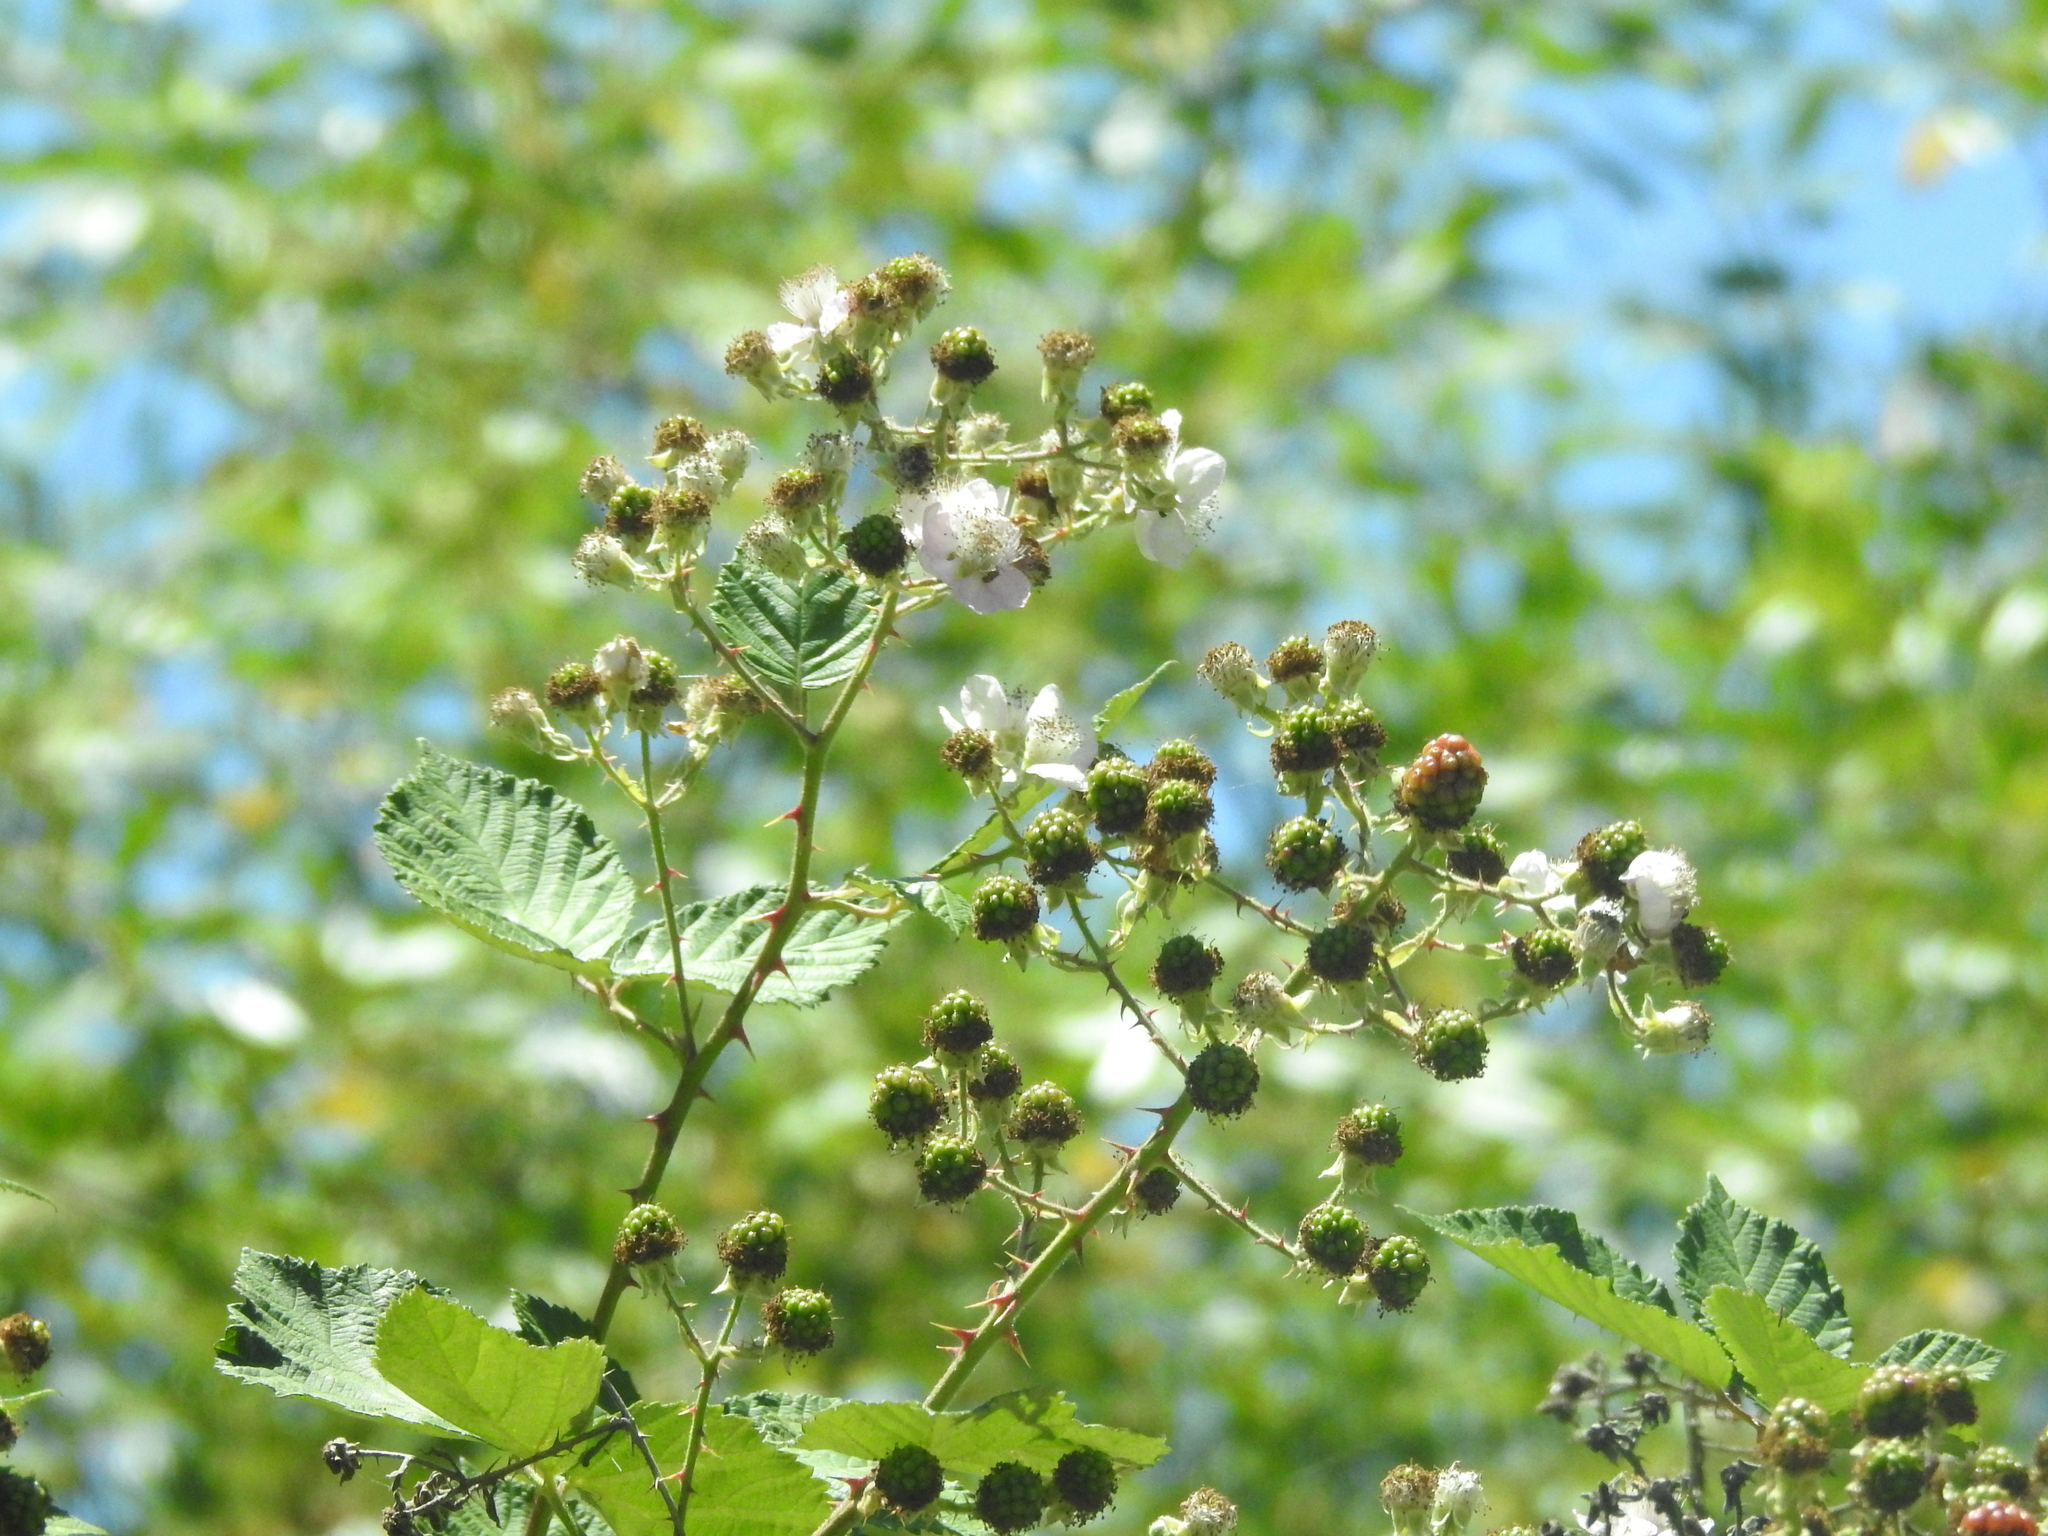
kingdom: Plantae
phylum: Tracheophyta
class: Magnoliopsida
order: Rosales
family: Rosaceae
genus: Rubus
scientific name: Rubus armeniacus
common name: Himalayan blackberry
